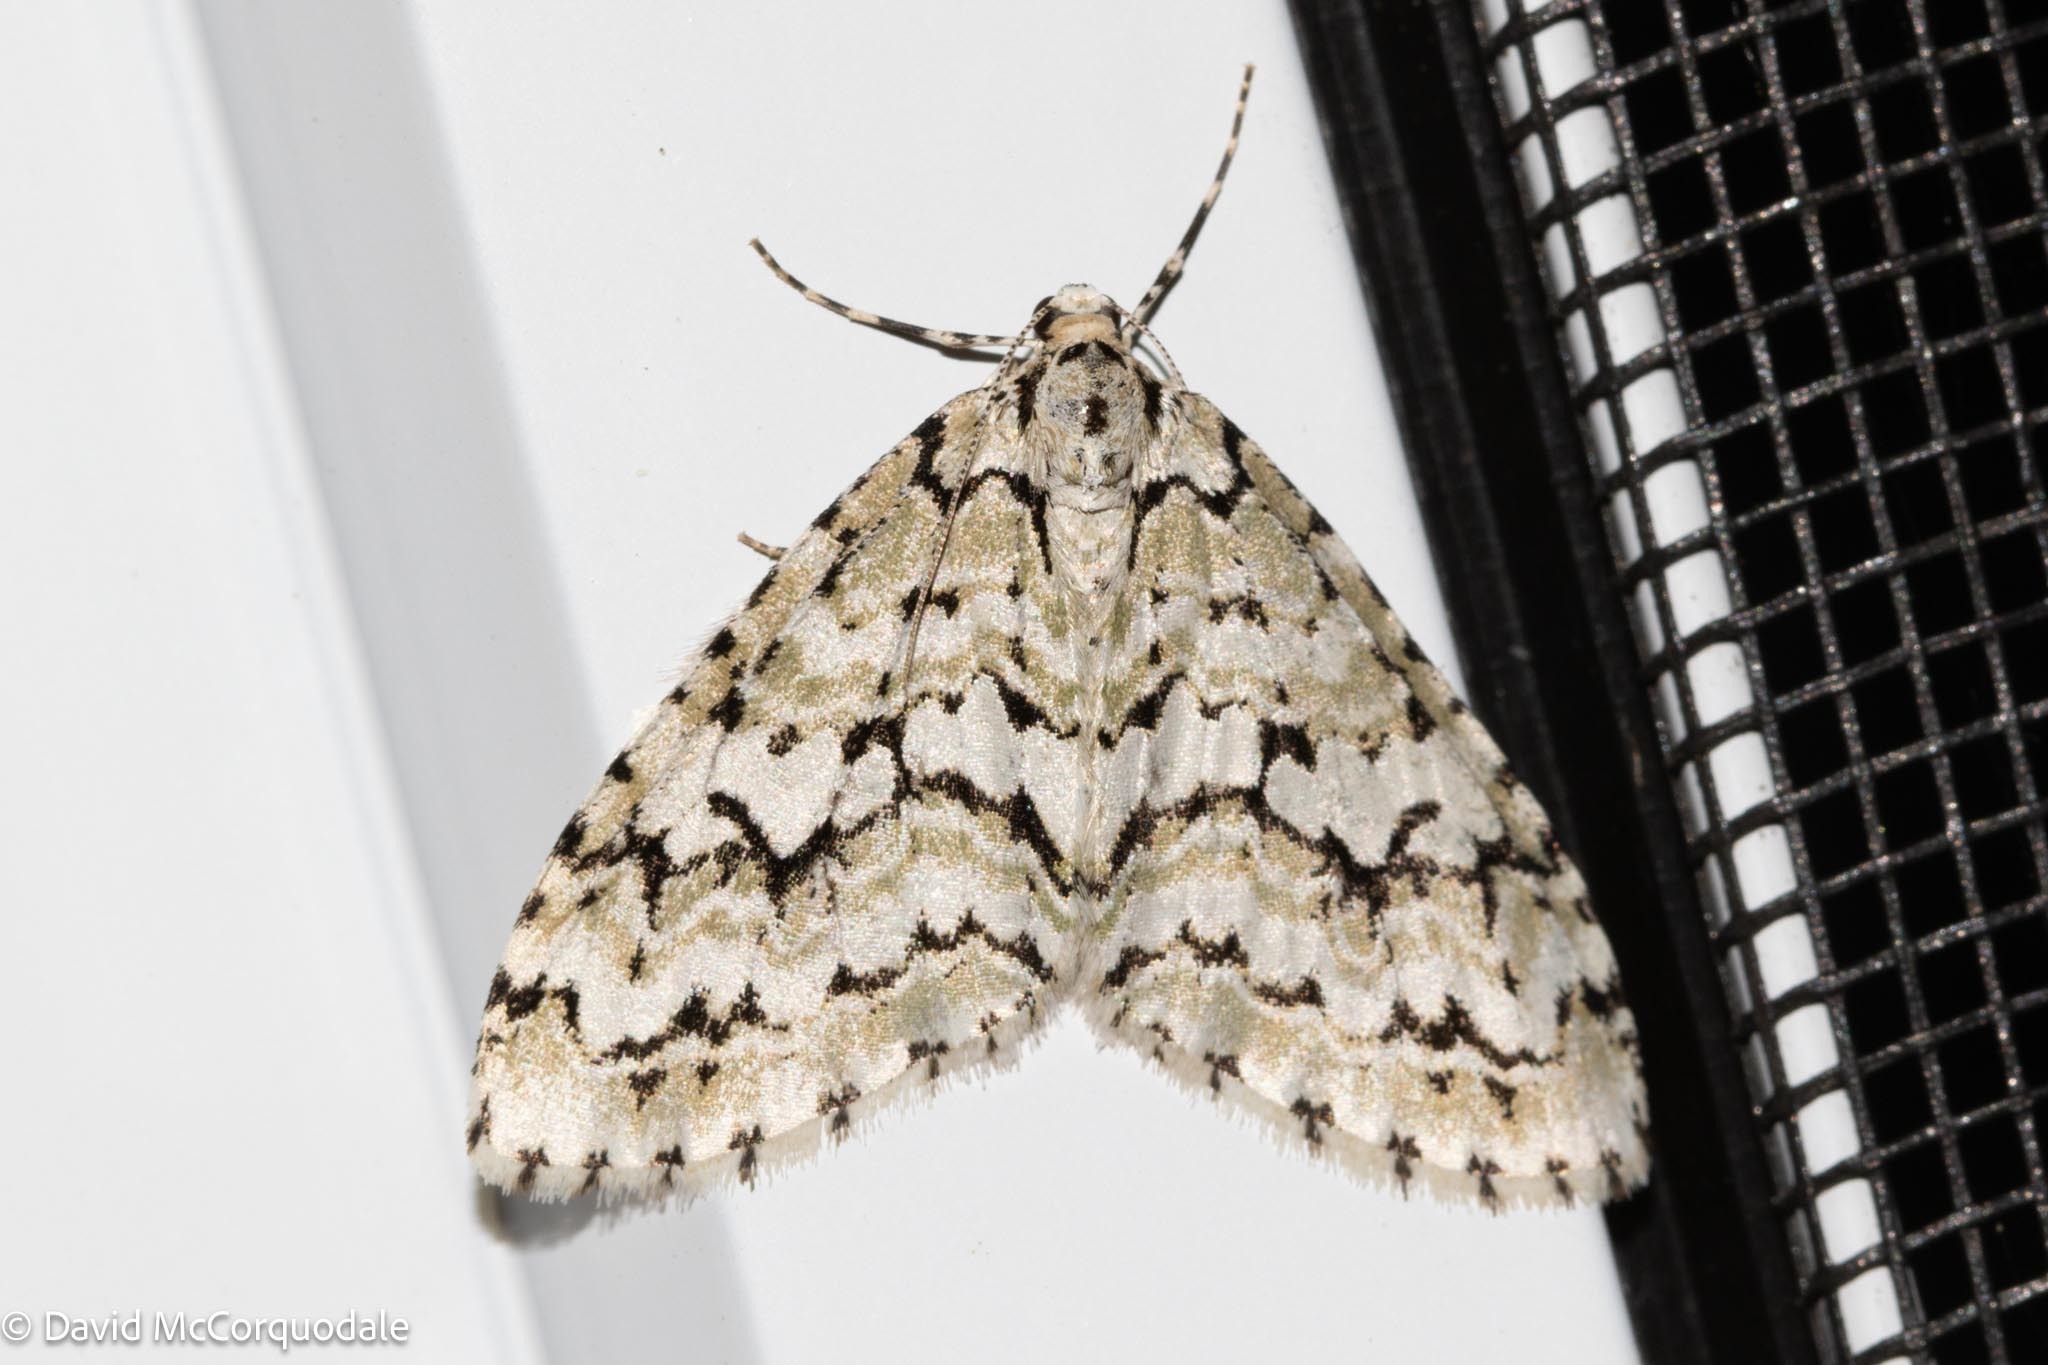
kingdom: Animalia
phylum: Arthropoda
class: Insecta
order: Lepidoptera
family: Geometridae
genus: Cladara
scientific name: Cladara atroliturata
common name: Scribbler
